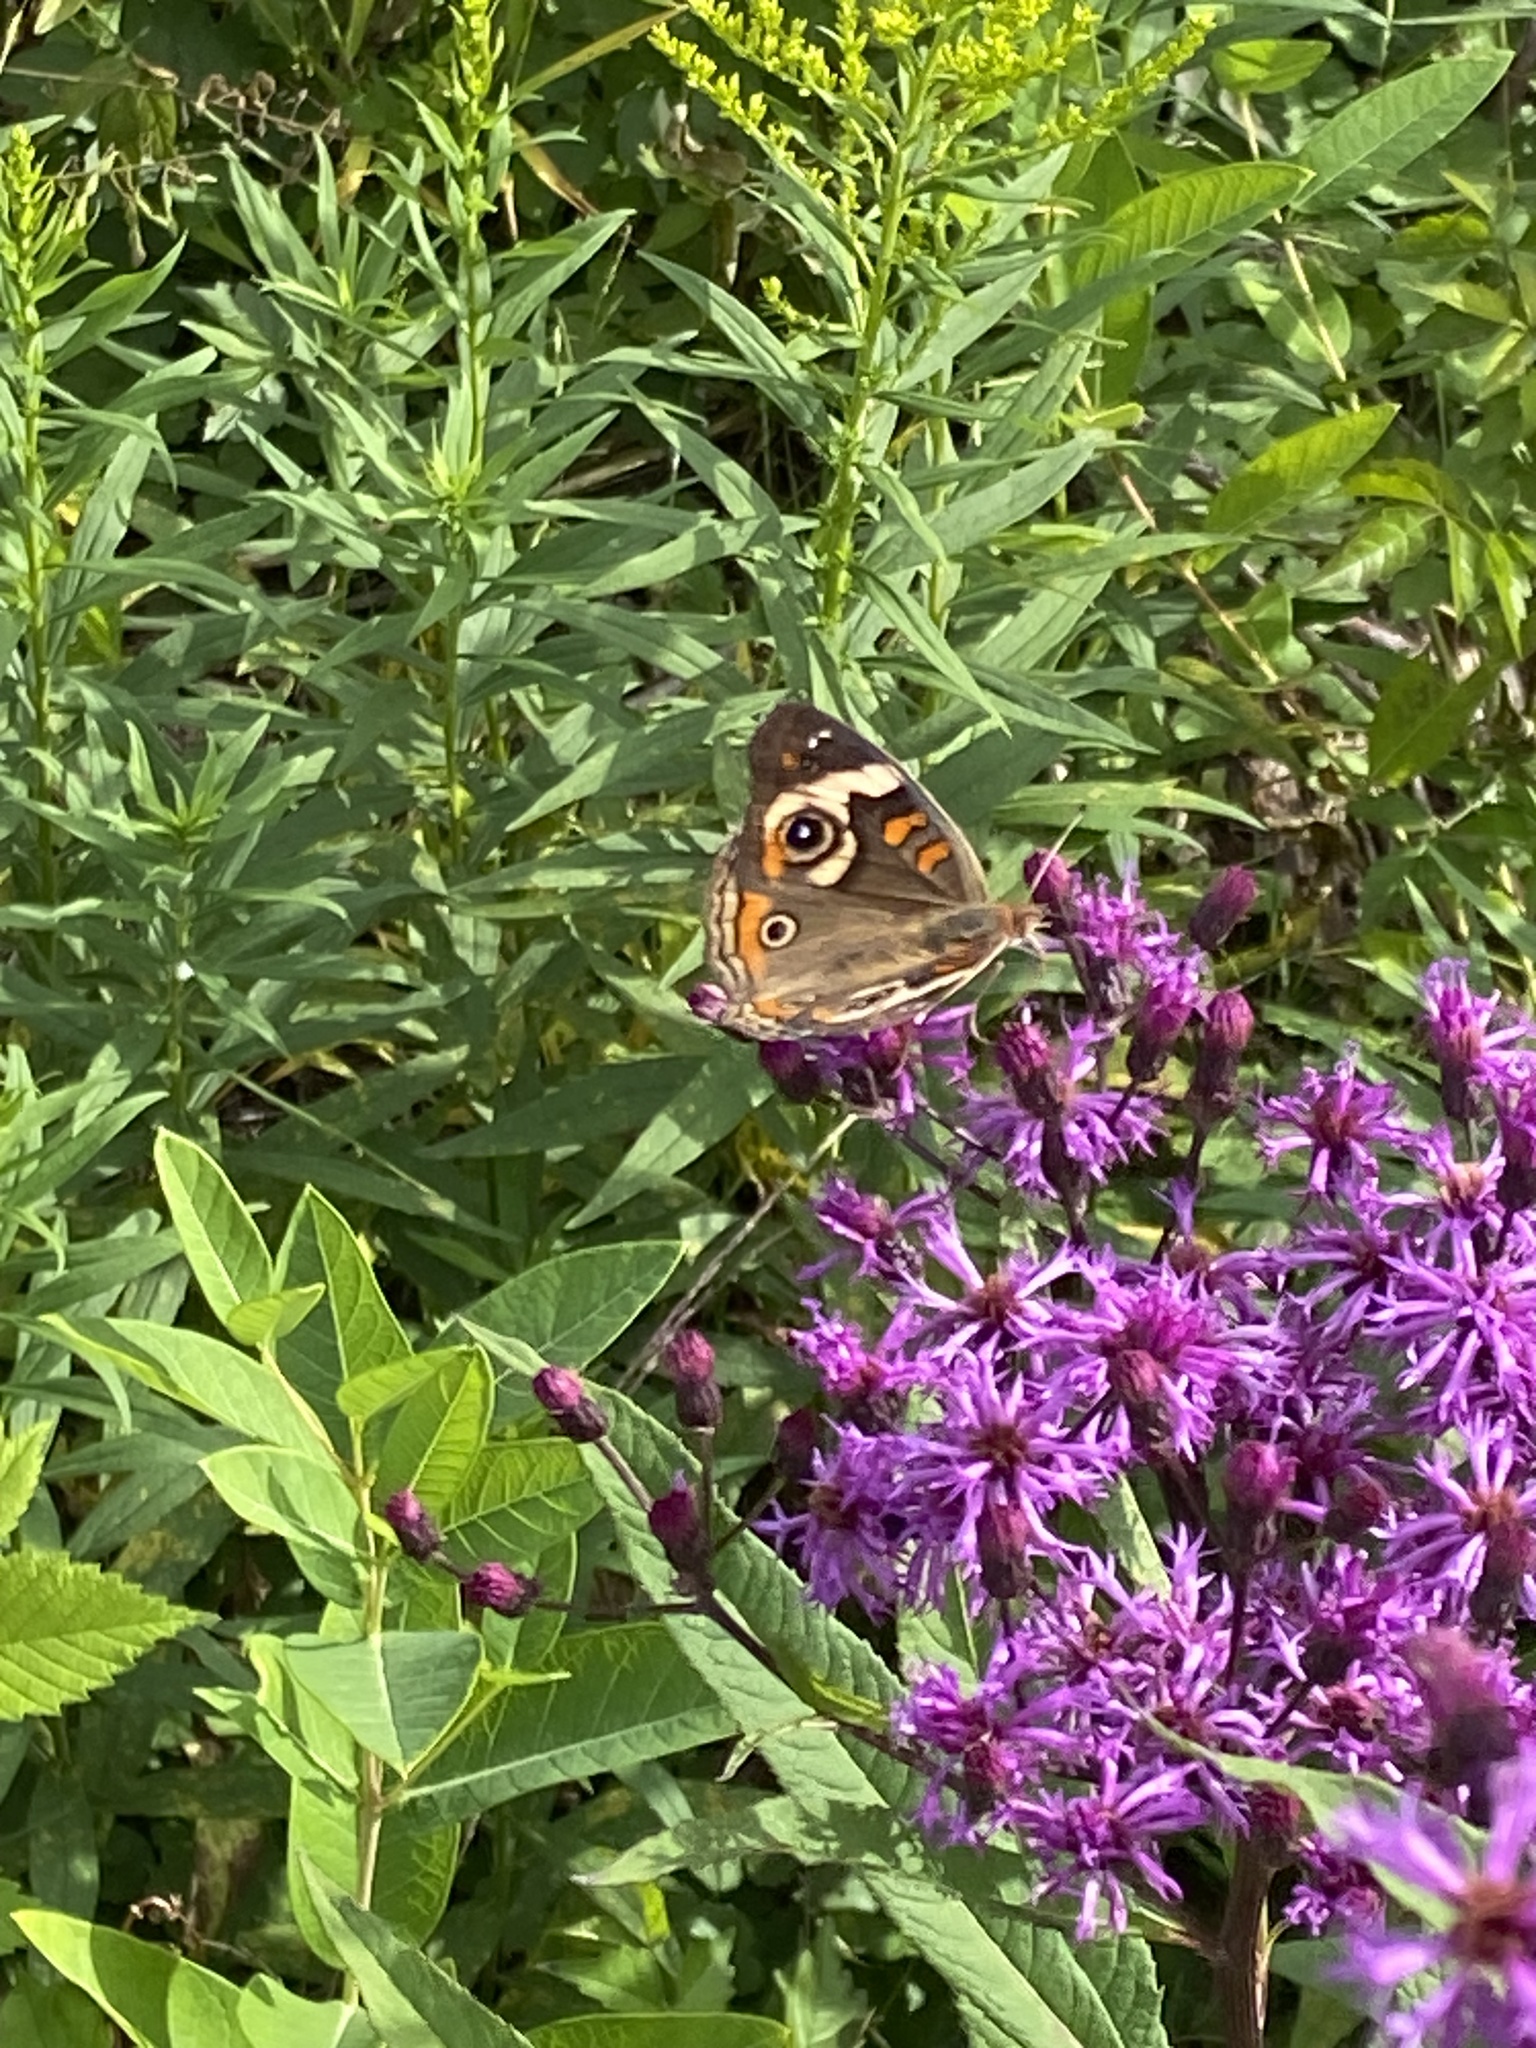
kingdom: Animalia
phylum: Arthropoda
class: Insecta
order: Lepidoptera
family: Nymphalidae
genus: Junonia
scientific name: Junonia coenia
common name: Common buckeye
